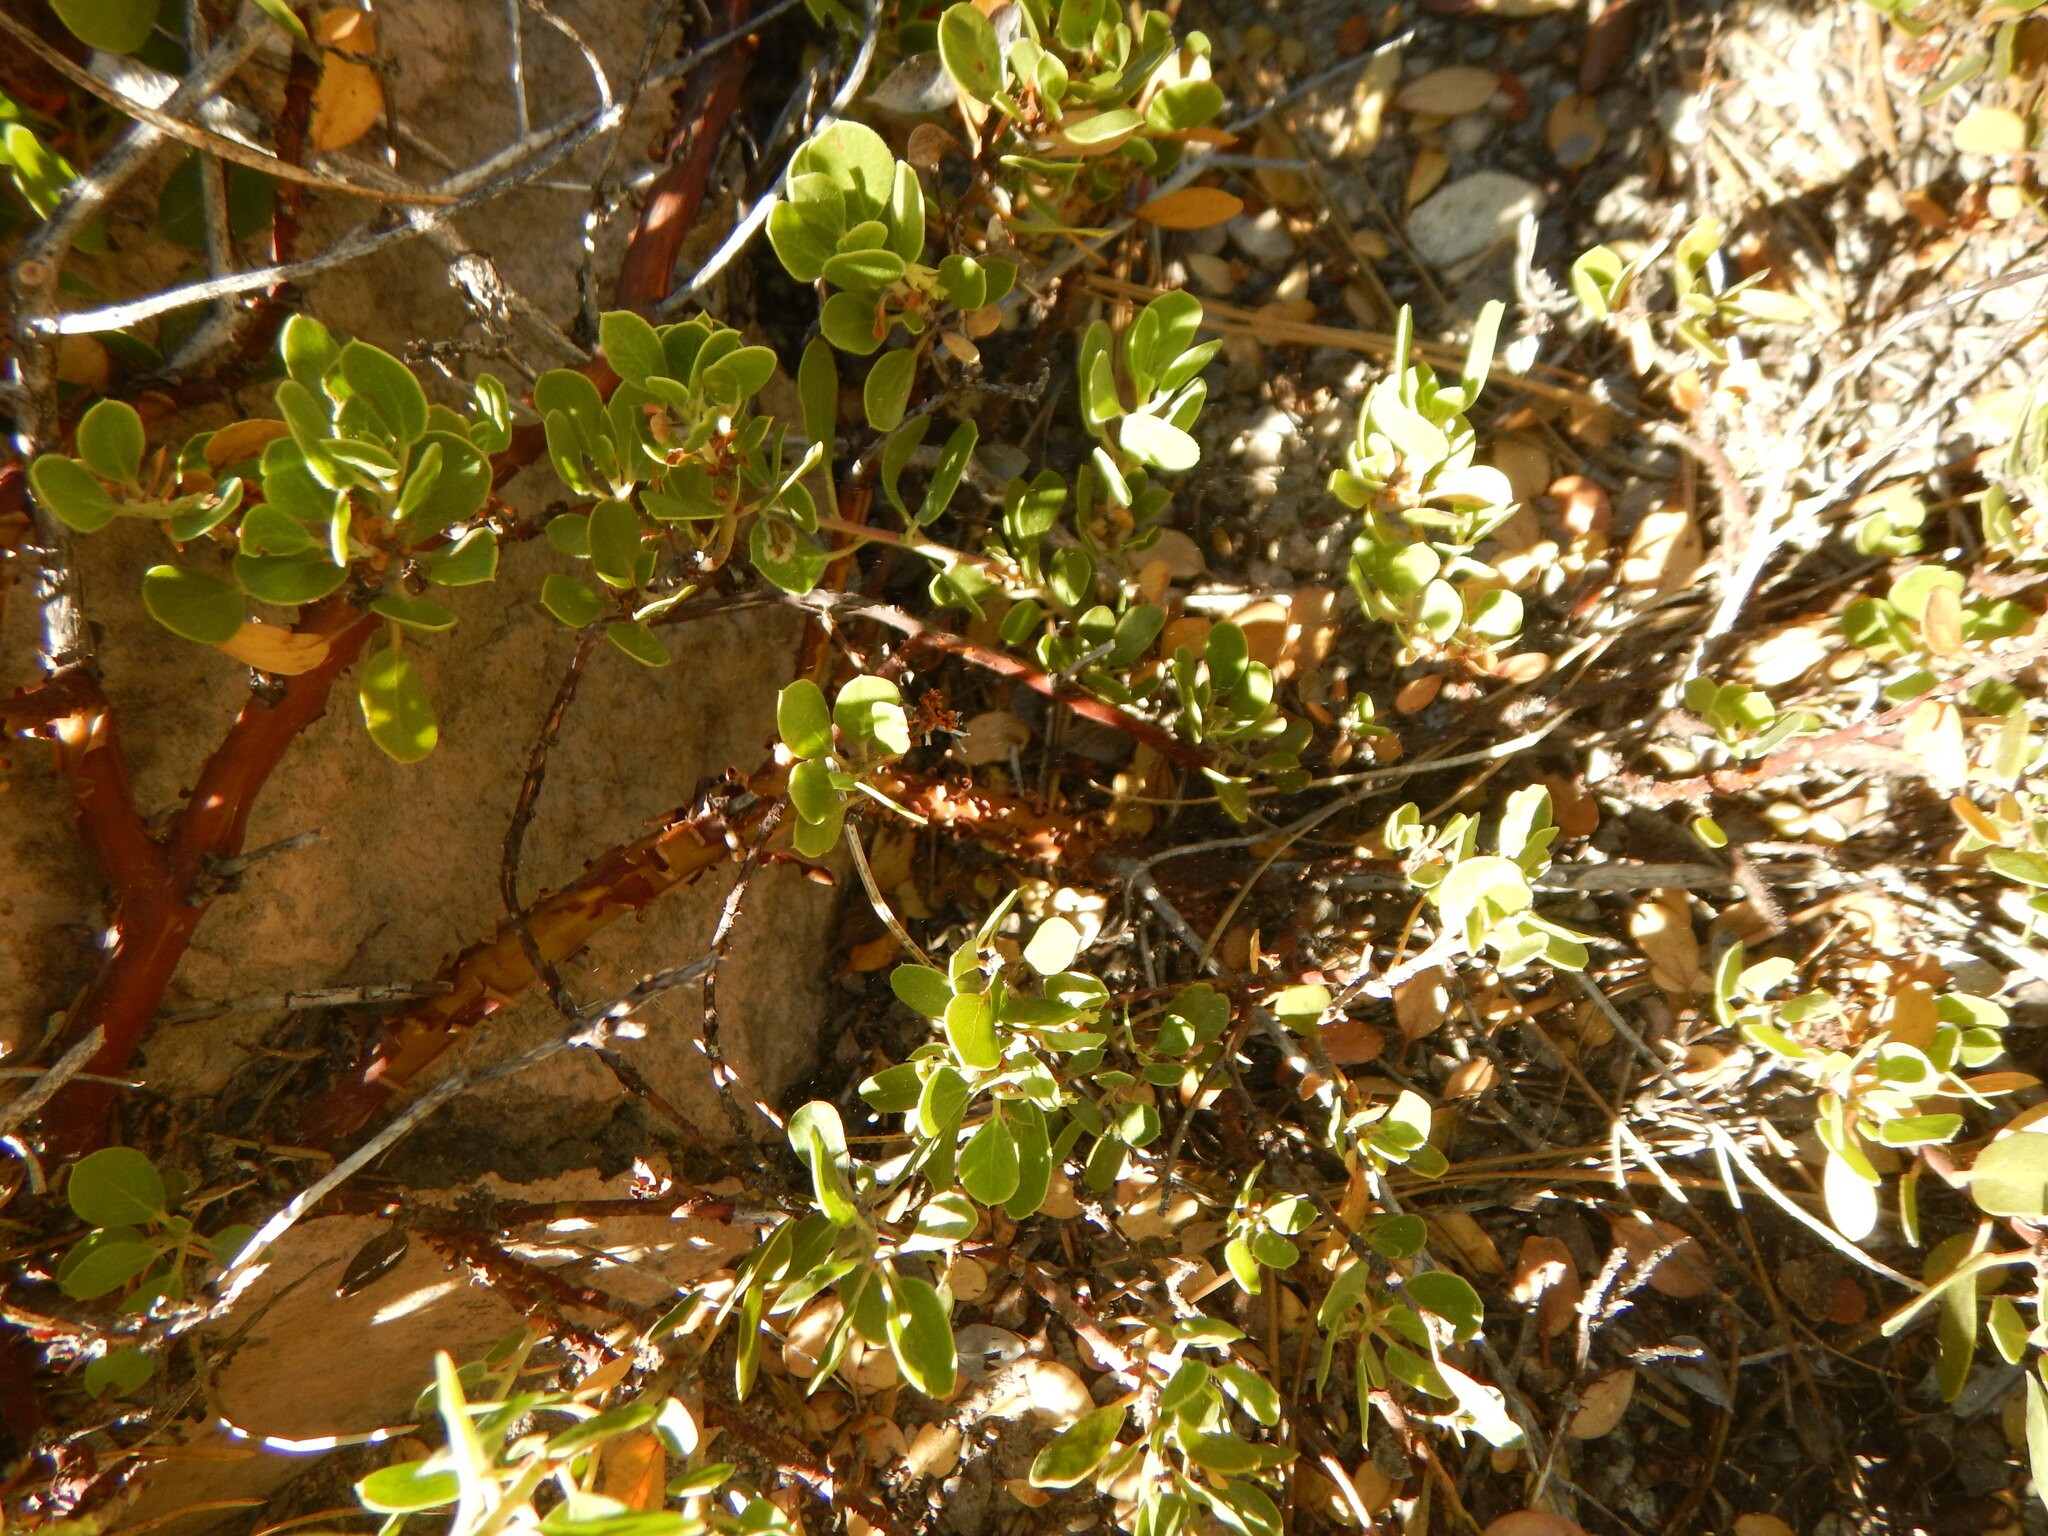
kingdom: Plantae
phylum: Tracheophyta
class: Magnoliopsida
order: Ericales
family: Ericaceae
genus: Arctostaphylos
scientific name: Arctostaphylos nevadensis
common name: Pinemat manzanita
